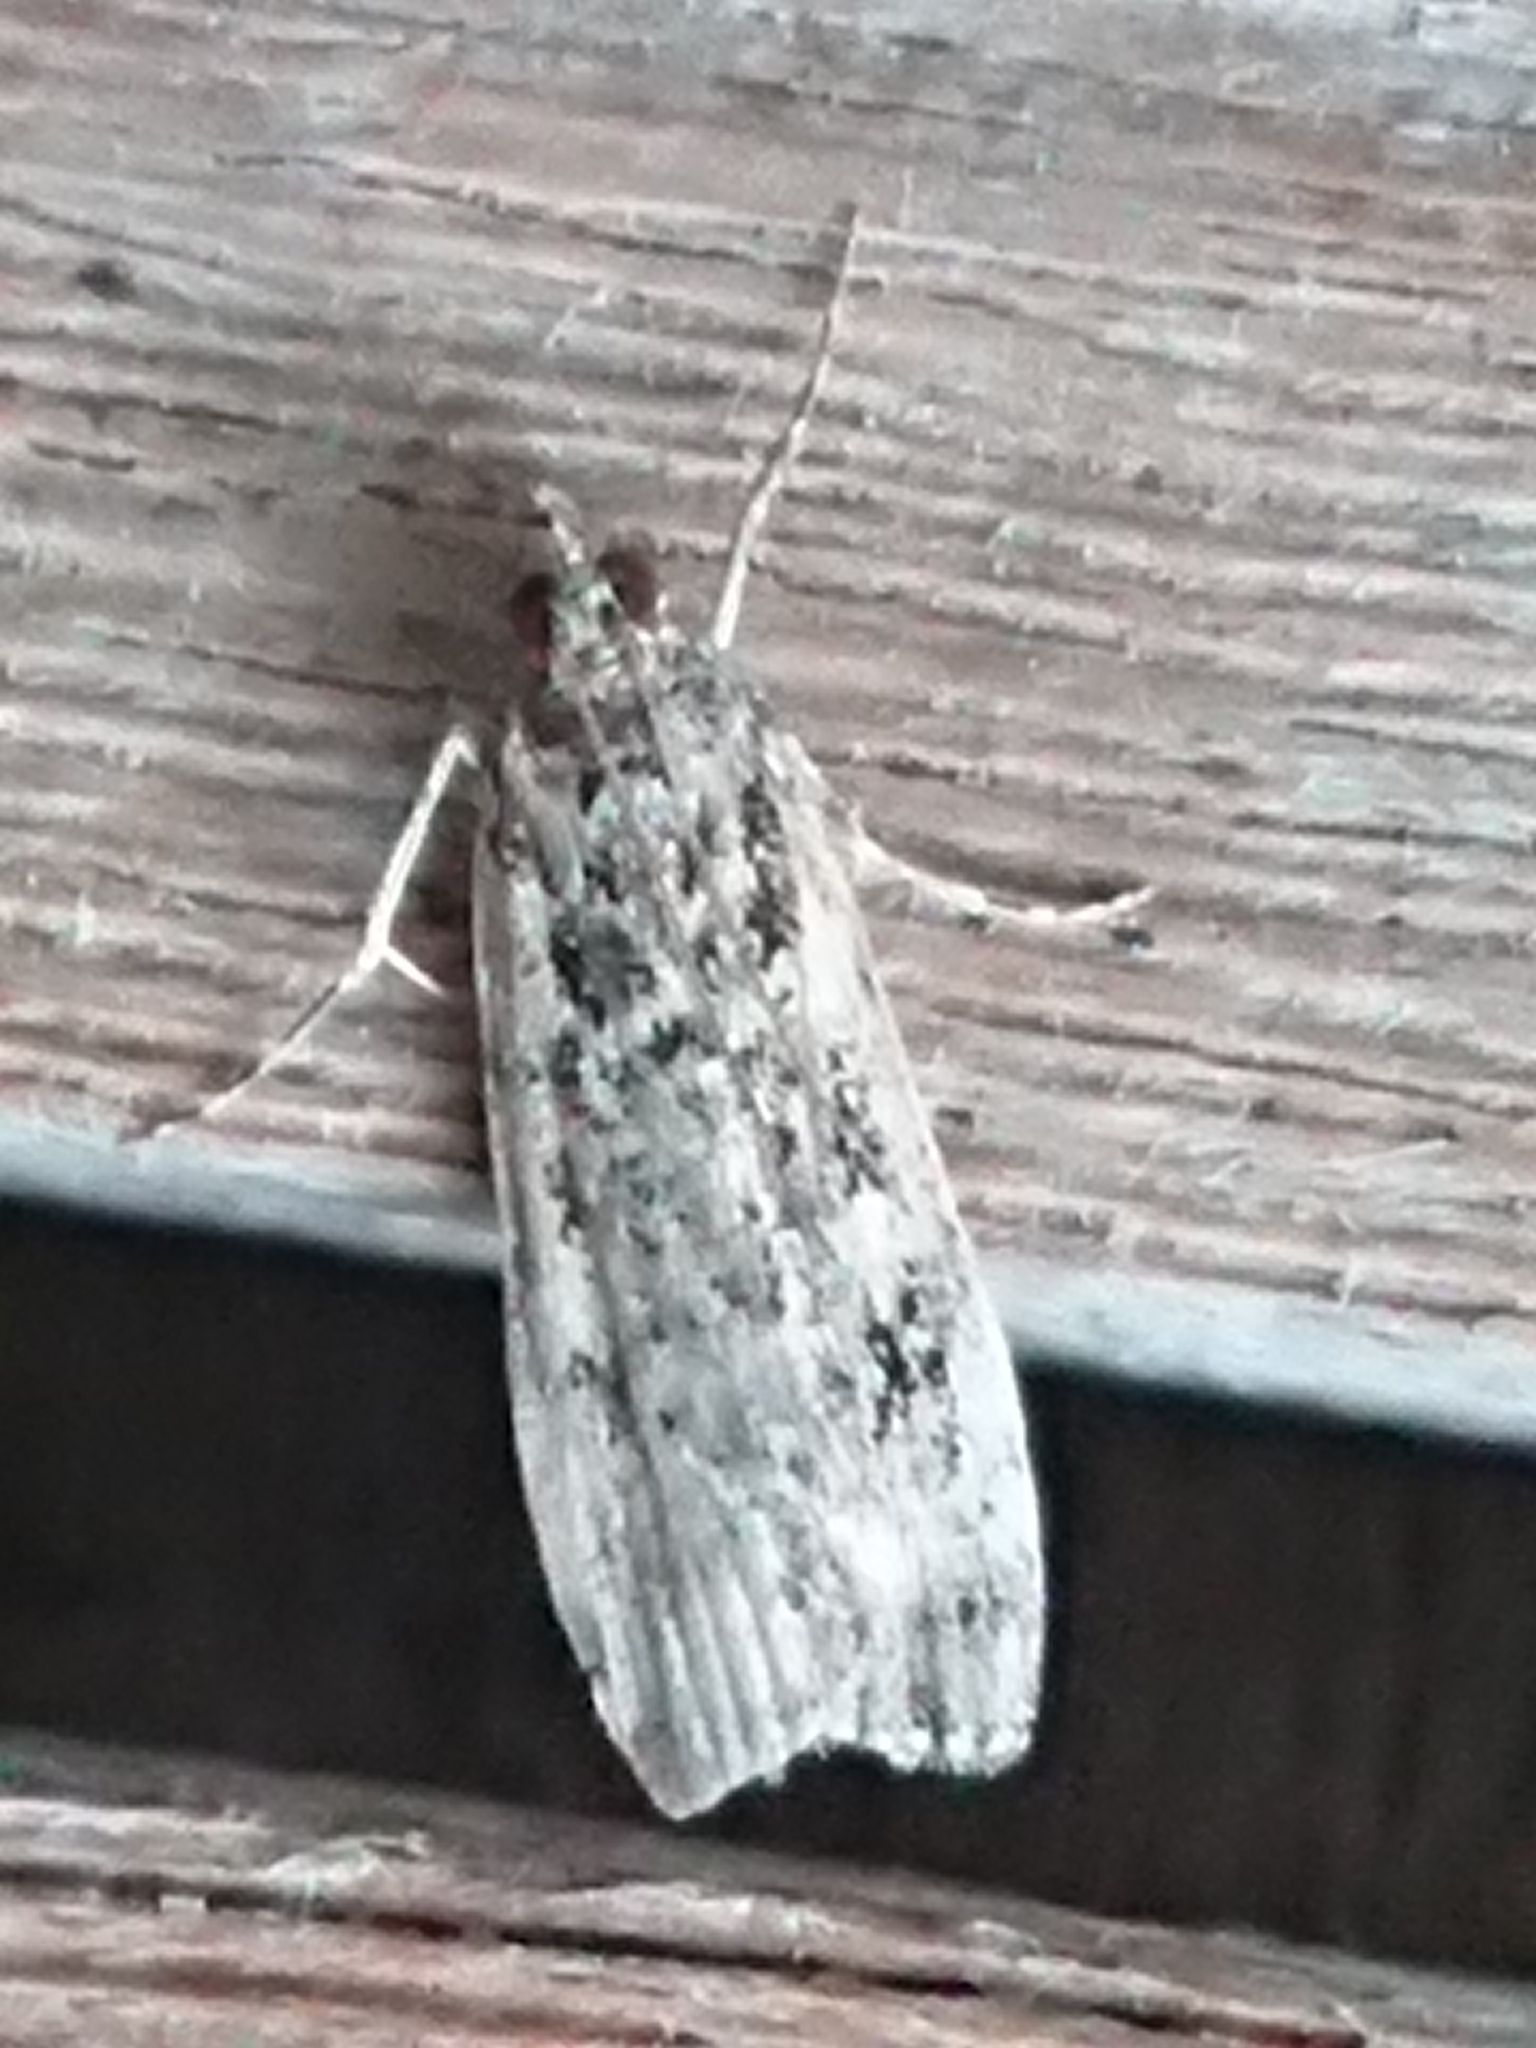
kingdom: Animalia
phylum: Arthropoda
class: Insecta
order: Lepidoptera
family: Crambidae
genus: Eudonia
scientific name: Eudonia philerga
